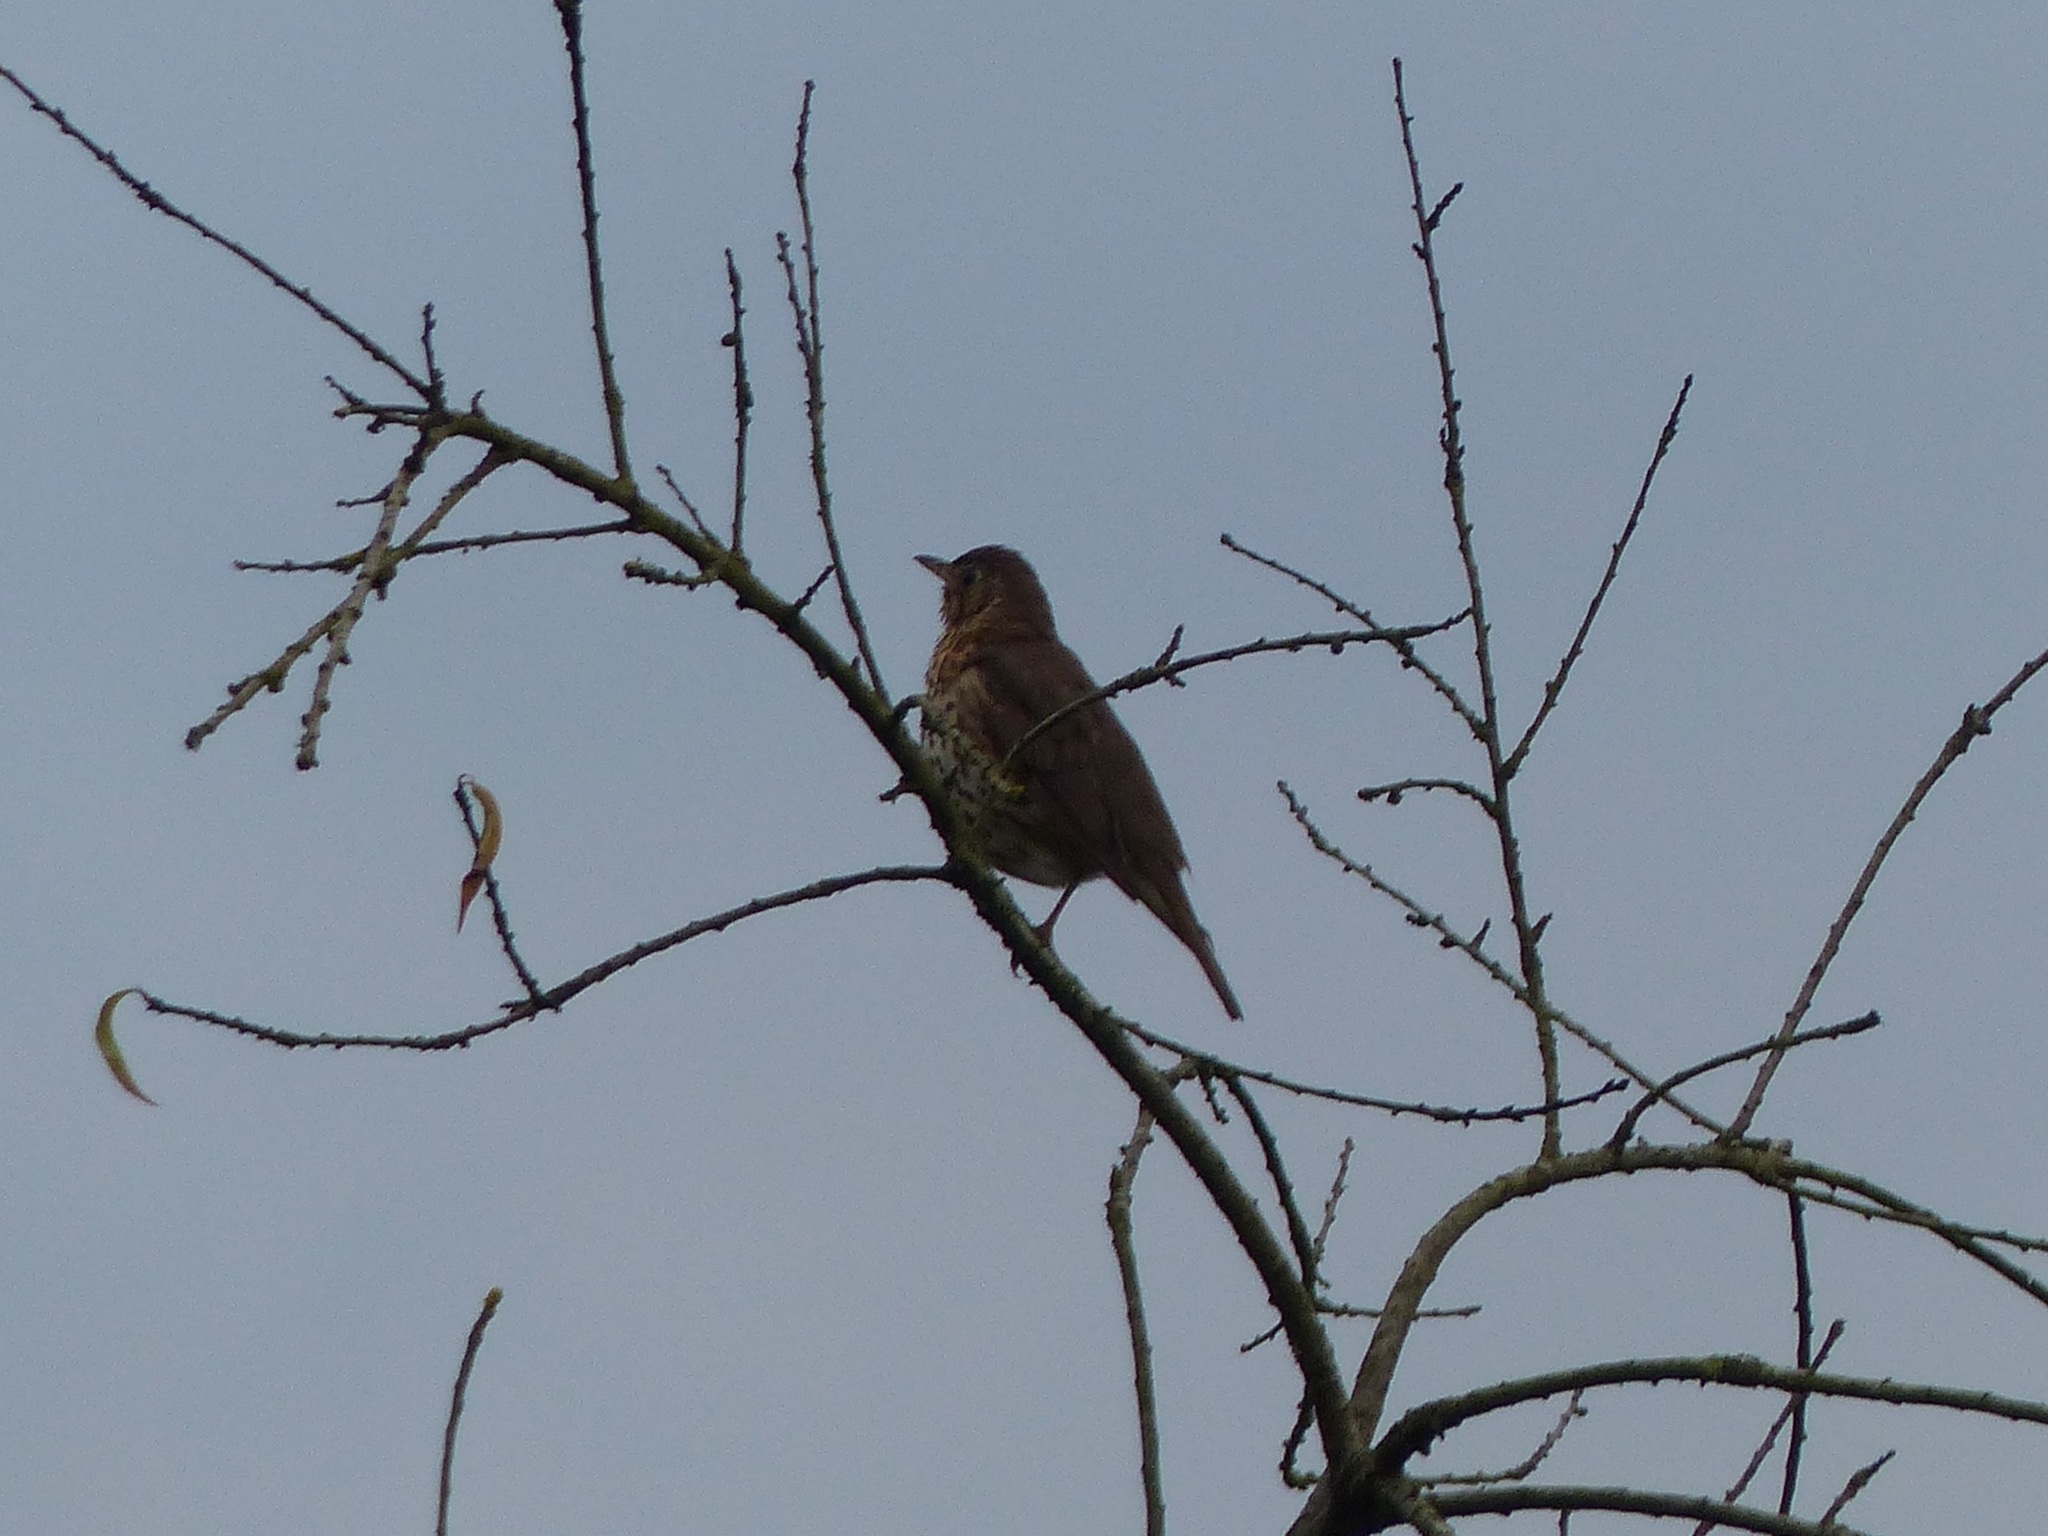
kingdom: Animalia
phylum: Chordata
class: Aves
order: Passeriformes
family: Turdidae
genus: Turdus
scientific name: Turdus philomelos
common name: Song thrush
